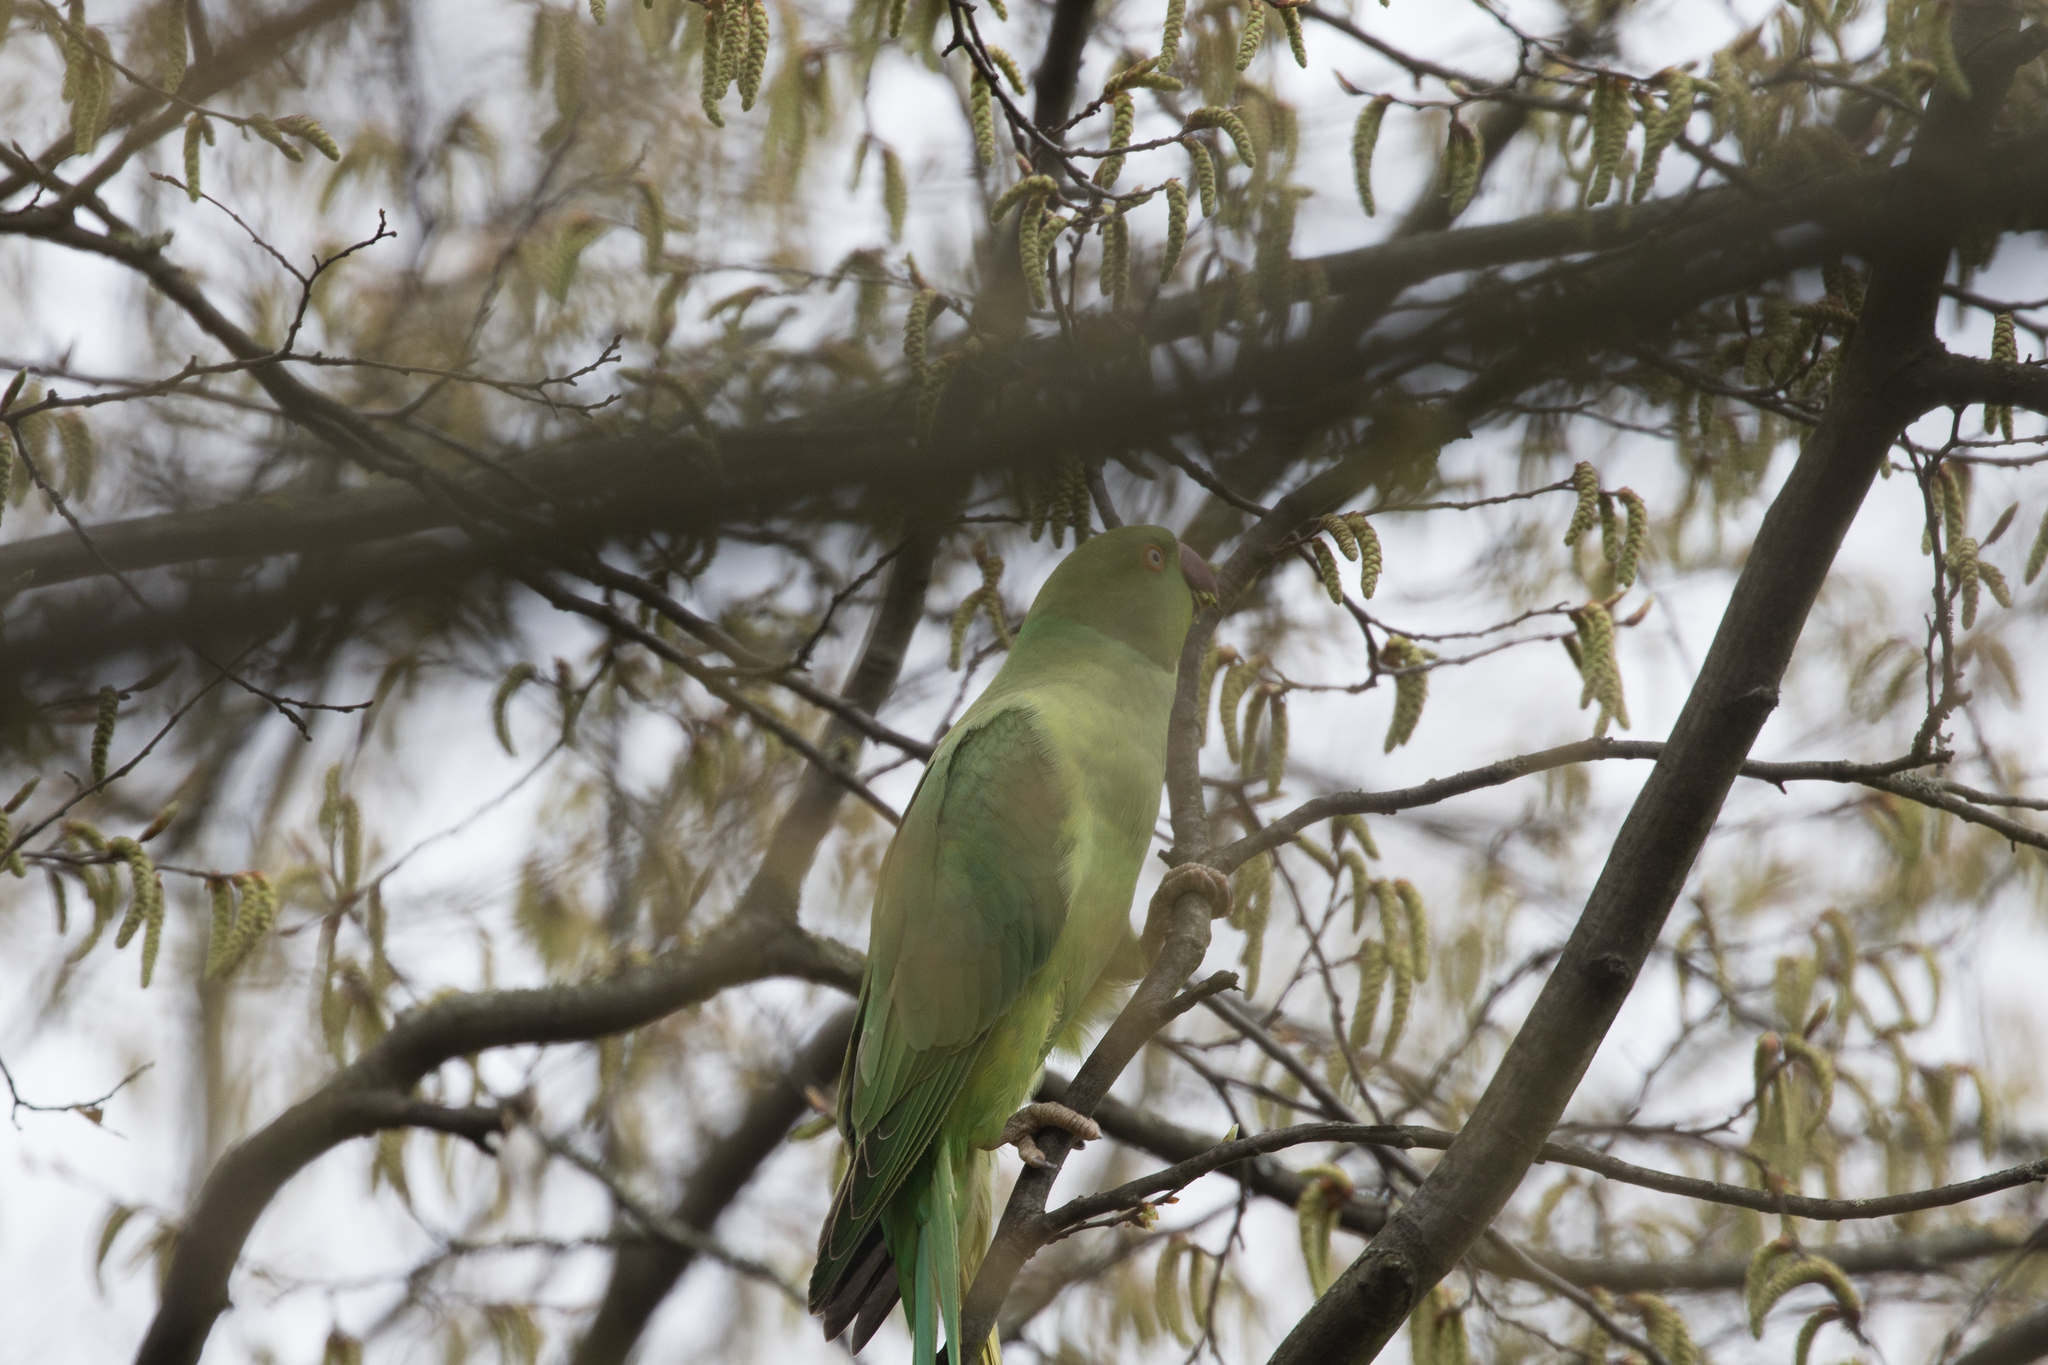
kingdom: Animalia
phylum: Chordata
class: Aves
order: Psittaciformes
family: Psittacidae
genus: Psittacula
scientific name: Psittacula krameri
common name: Rose-ringed parakeet
